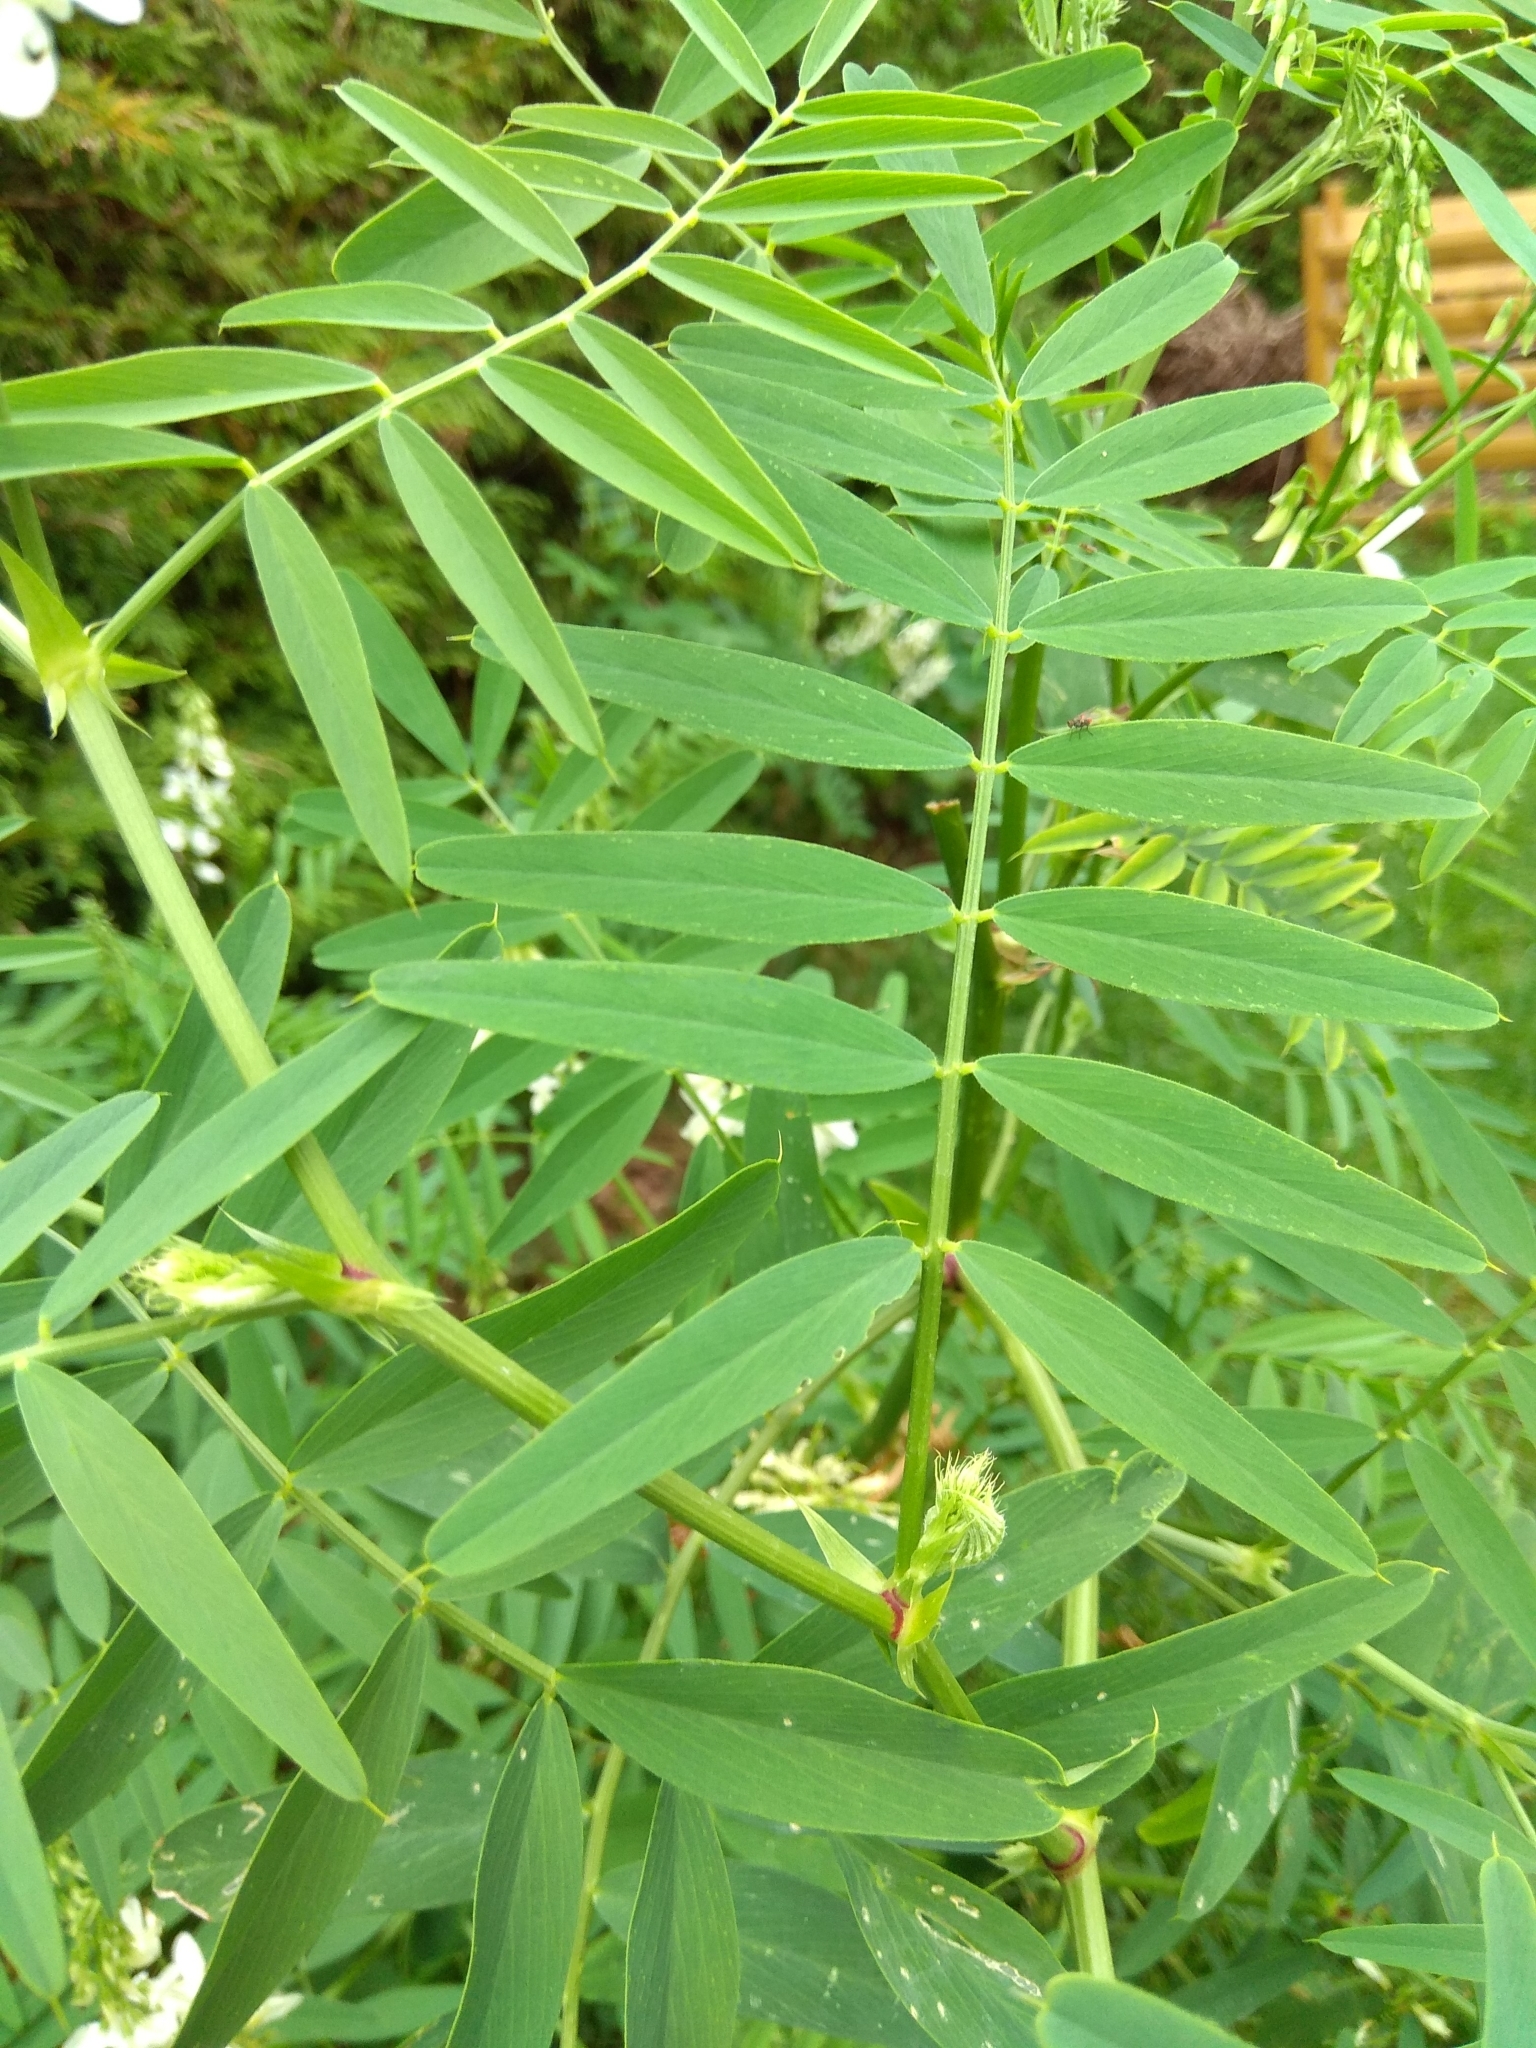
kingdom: Plantae
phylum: Tracheophyta
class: Magnoliopsida
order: Fabales
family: Fabaceae
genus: Galega
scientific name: Galega officinalis
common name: Goat's-rue
